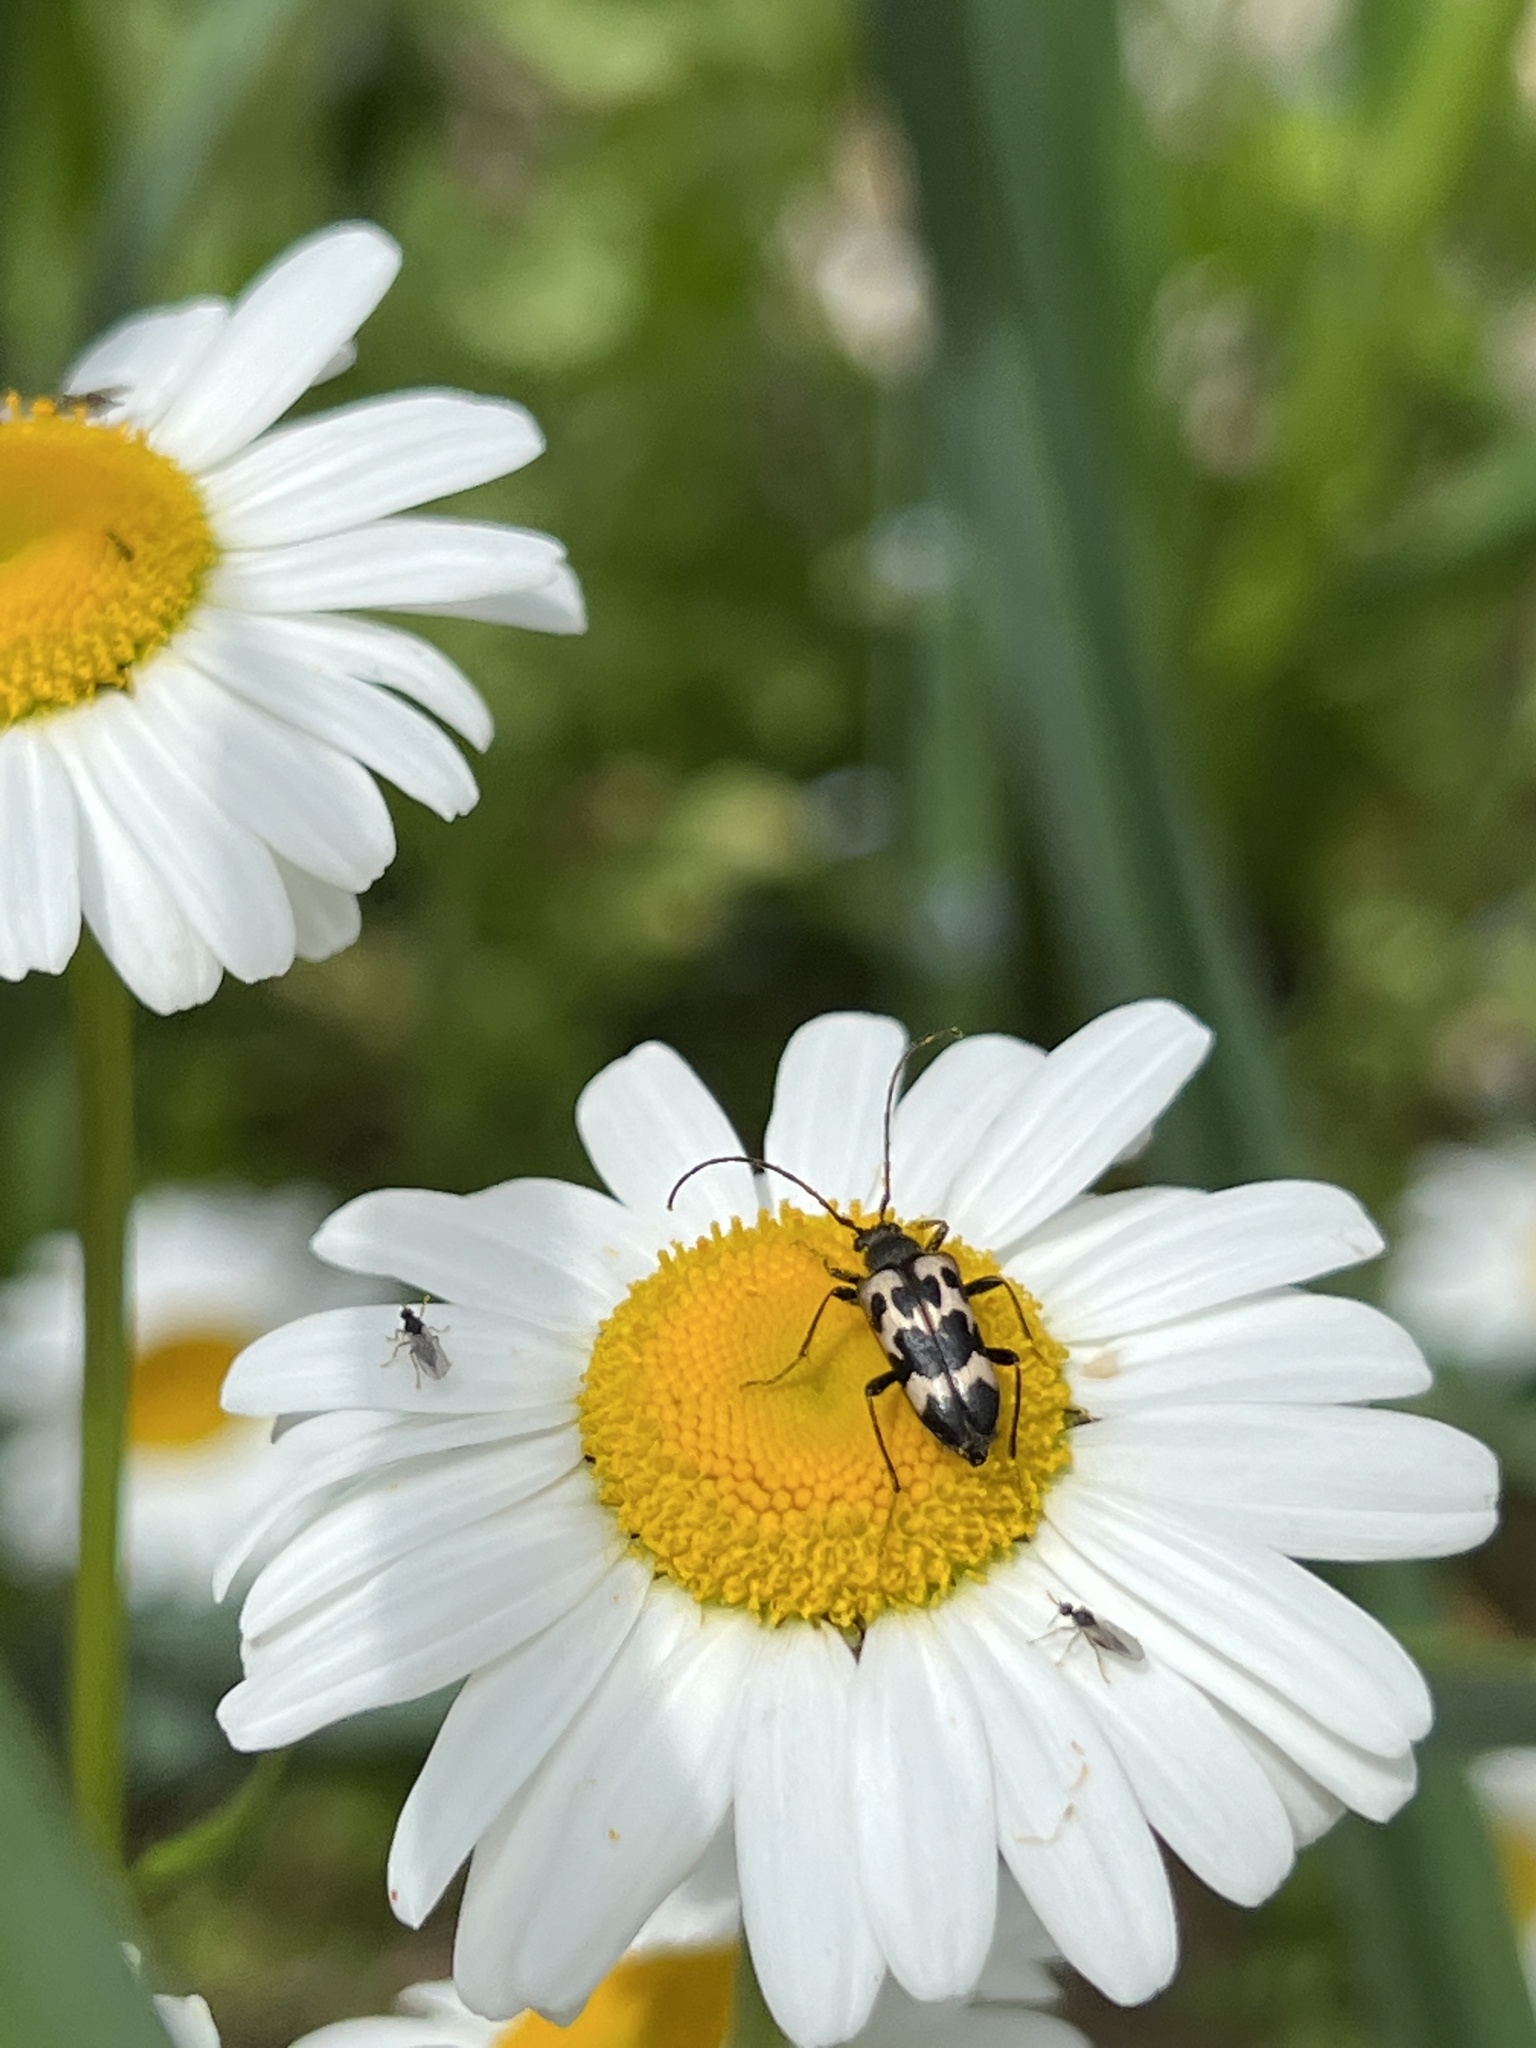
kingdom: Animalia
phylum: Arthropoda
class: Insecta
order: Coleoptera
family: Cerambycidae
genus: Judolia
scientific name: Judolia montivagans
